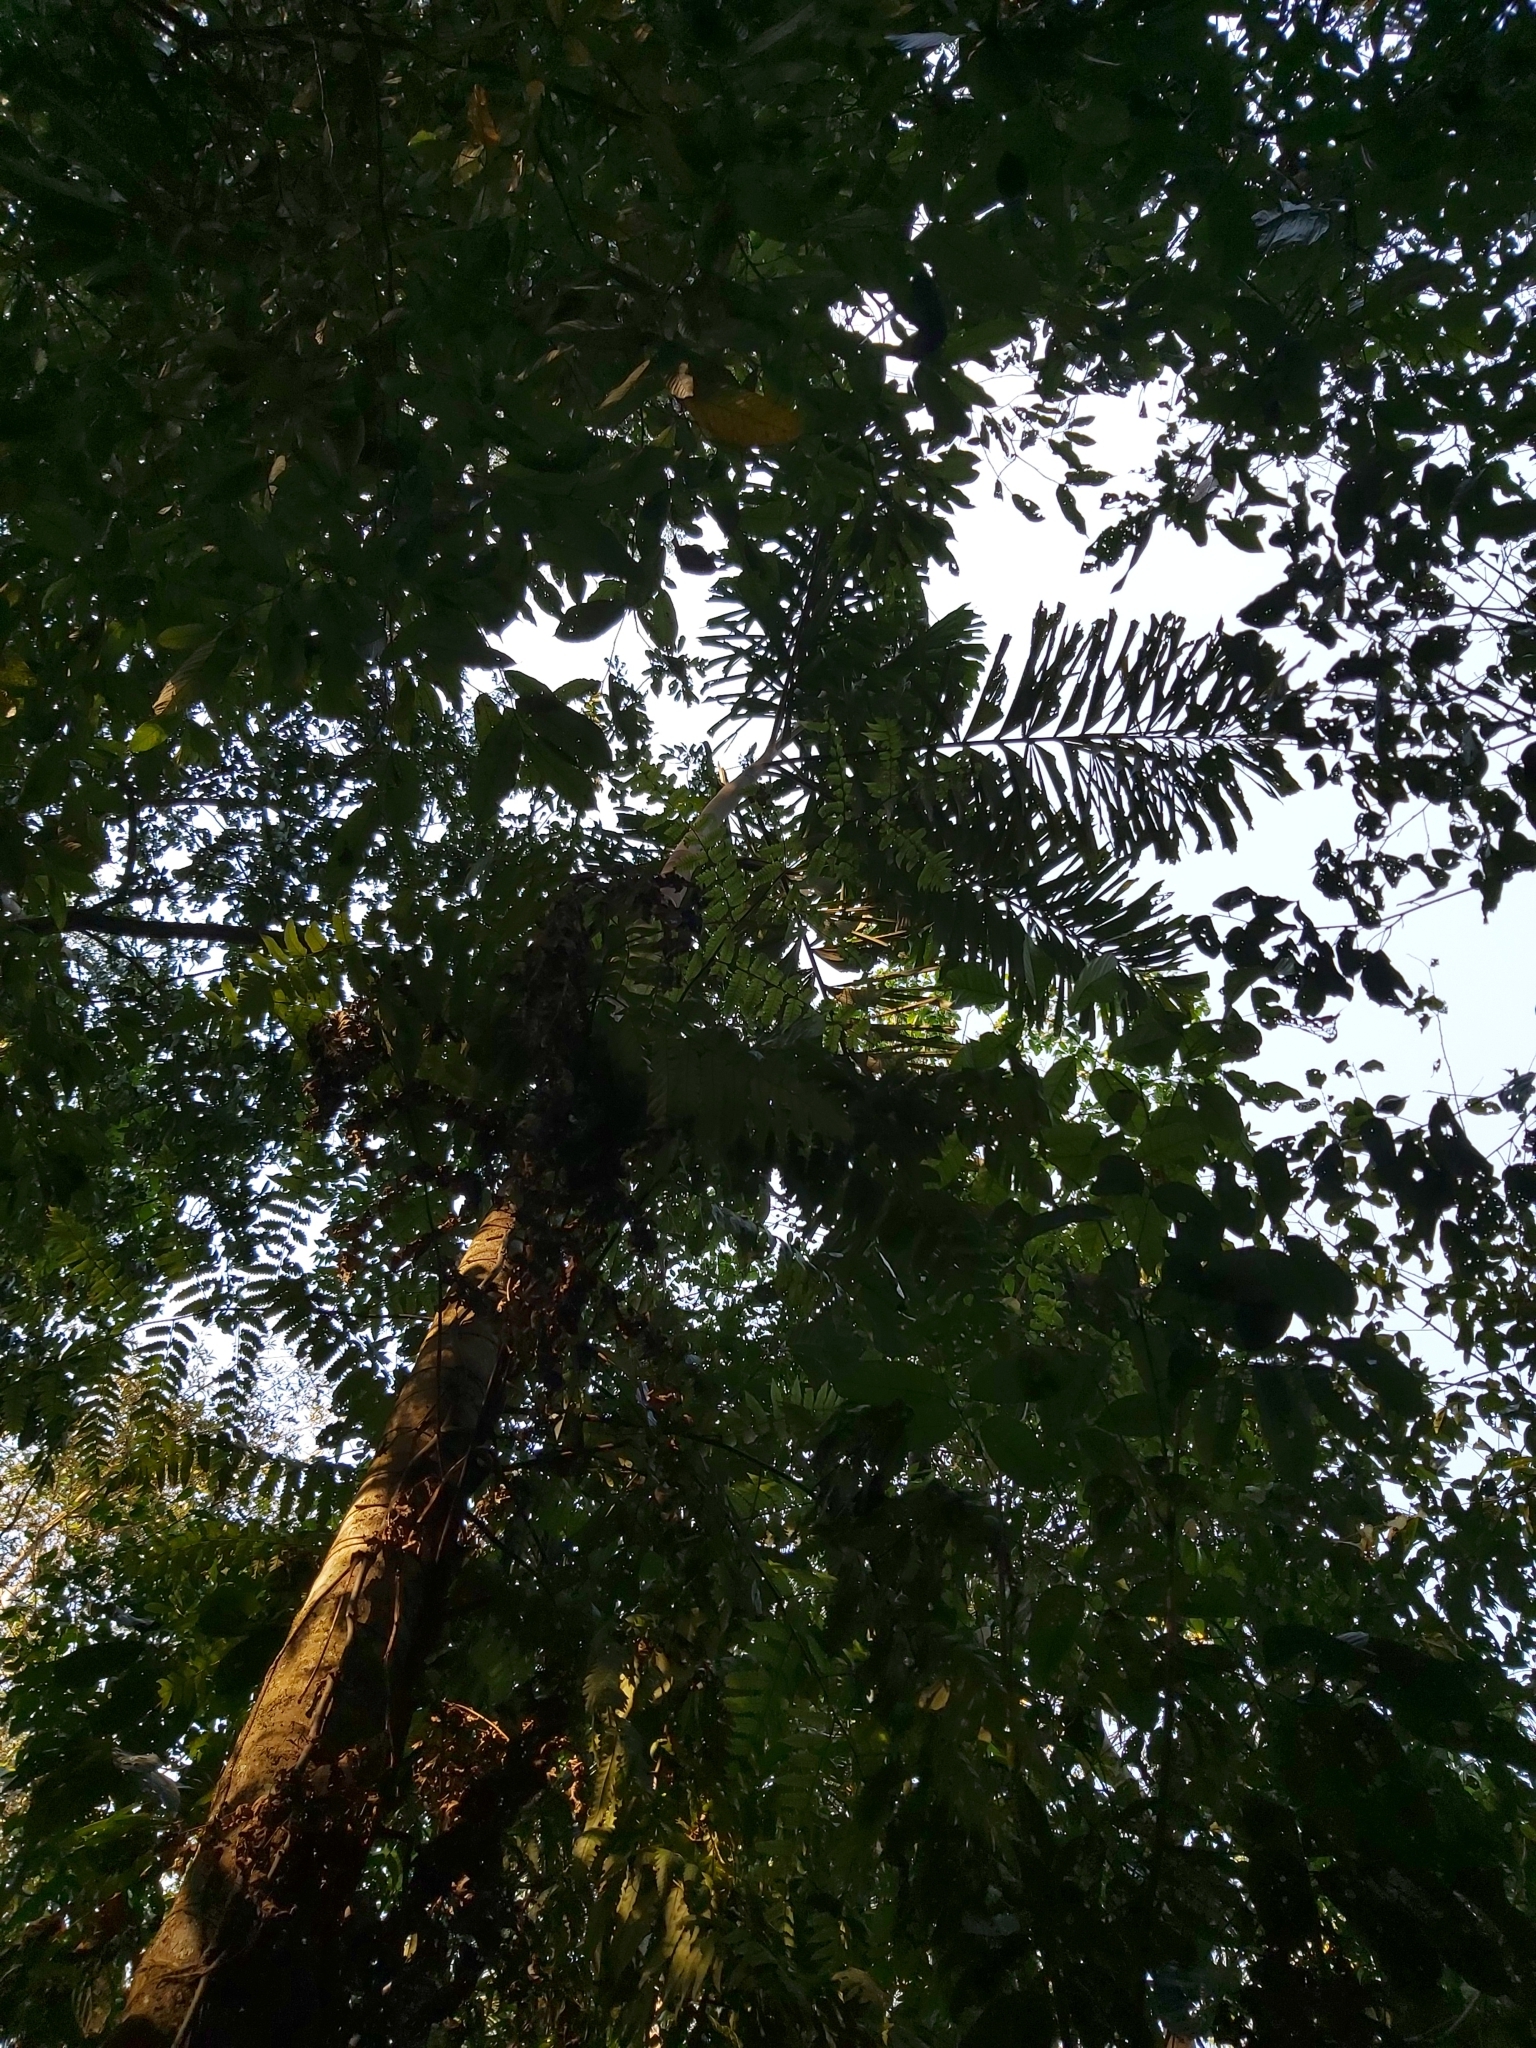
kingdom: Plantae
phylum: Tracheophyta
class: Liliopsida
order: Arecales
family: Arecaceae
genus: Socratea
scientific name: Socratea exorrhiza
